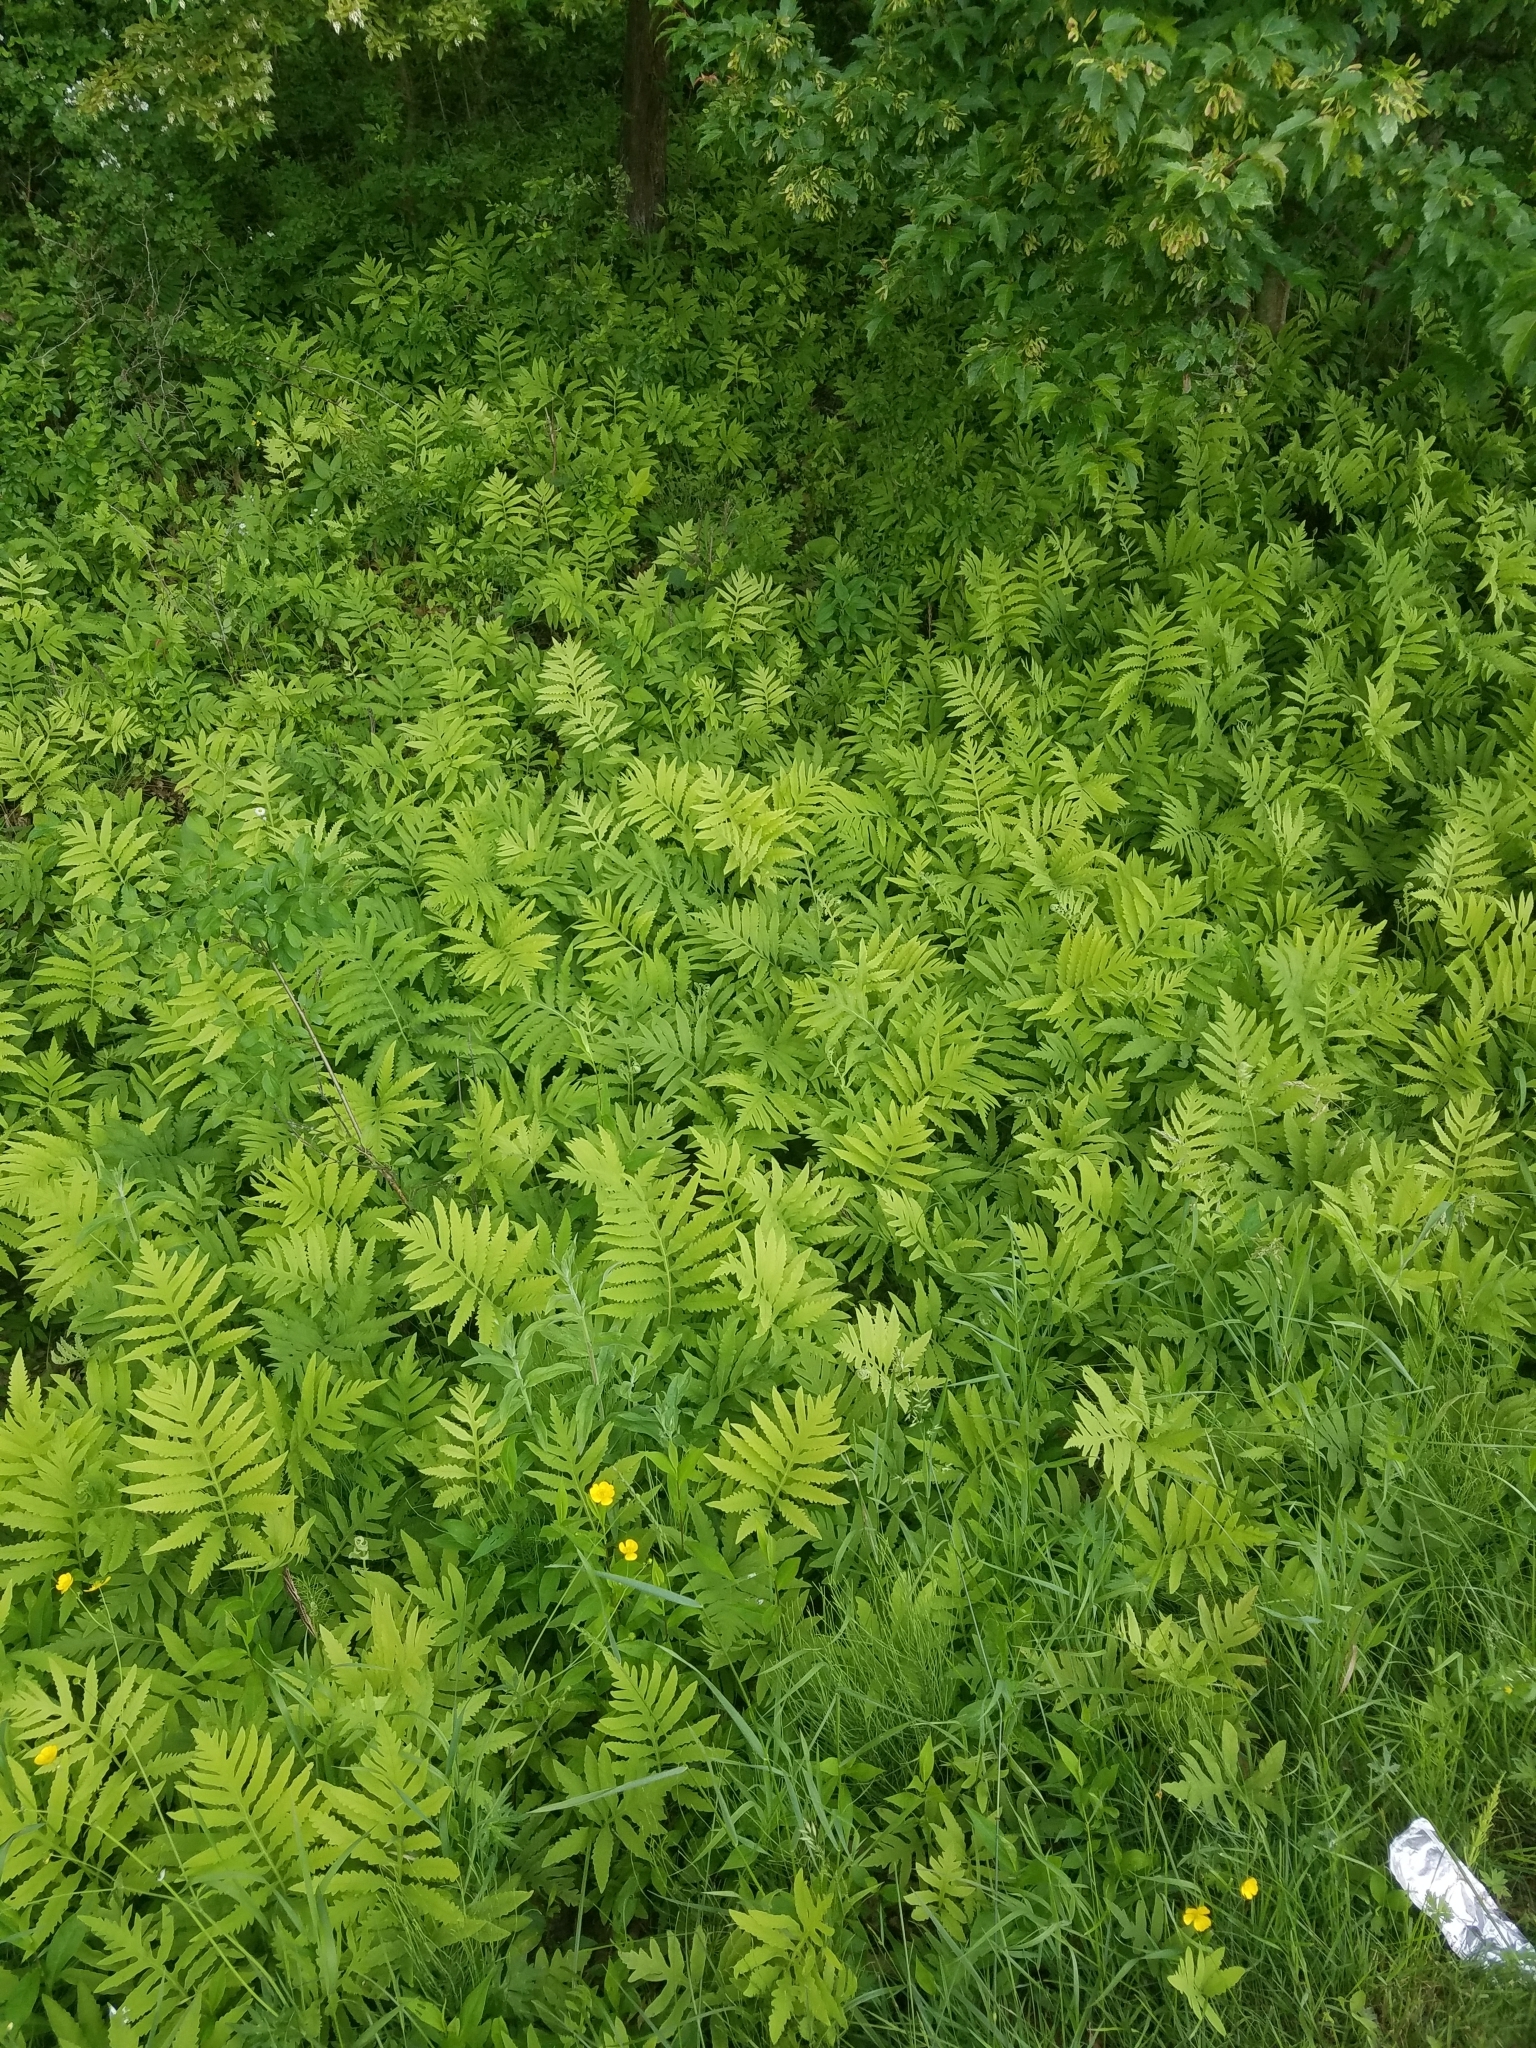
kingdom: Plantae
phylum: Tracheophyta
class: Polypodiopsida
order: Polypodiales
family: Onocleaceae
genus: Onoclea
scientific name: Onoclea sensibilis
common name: Sensitive fern
